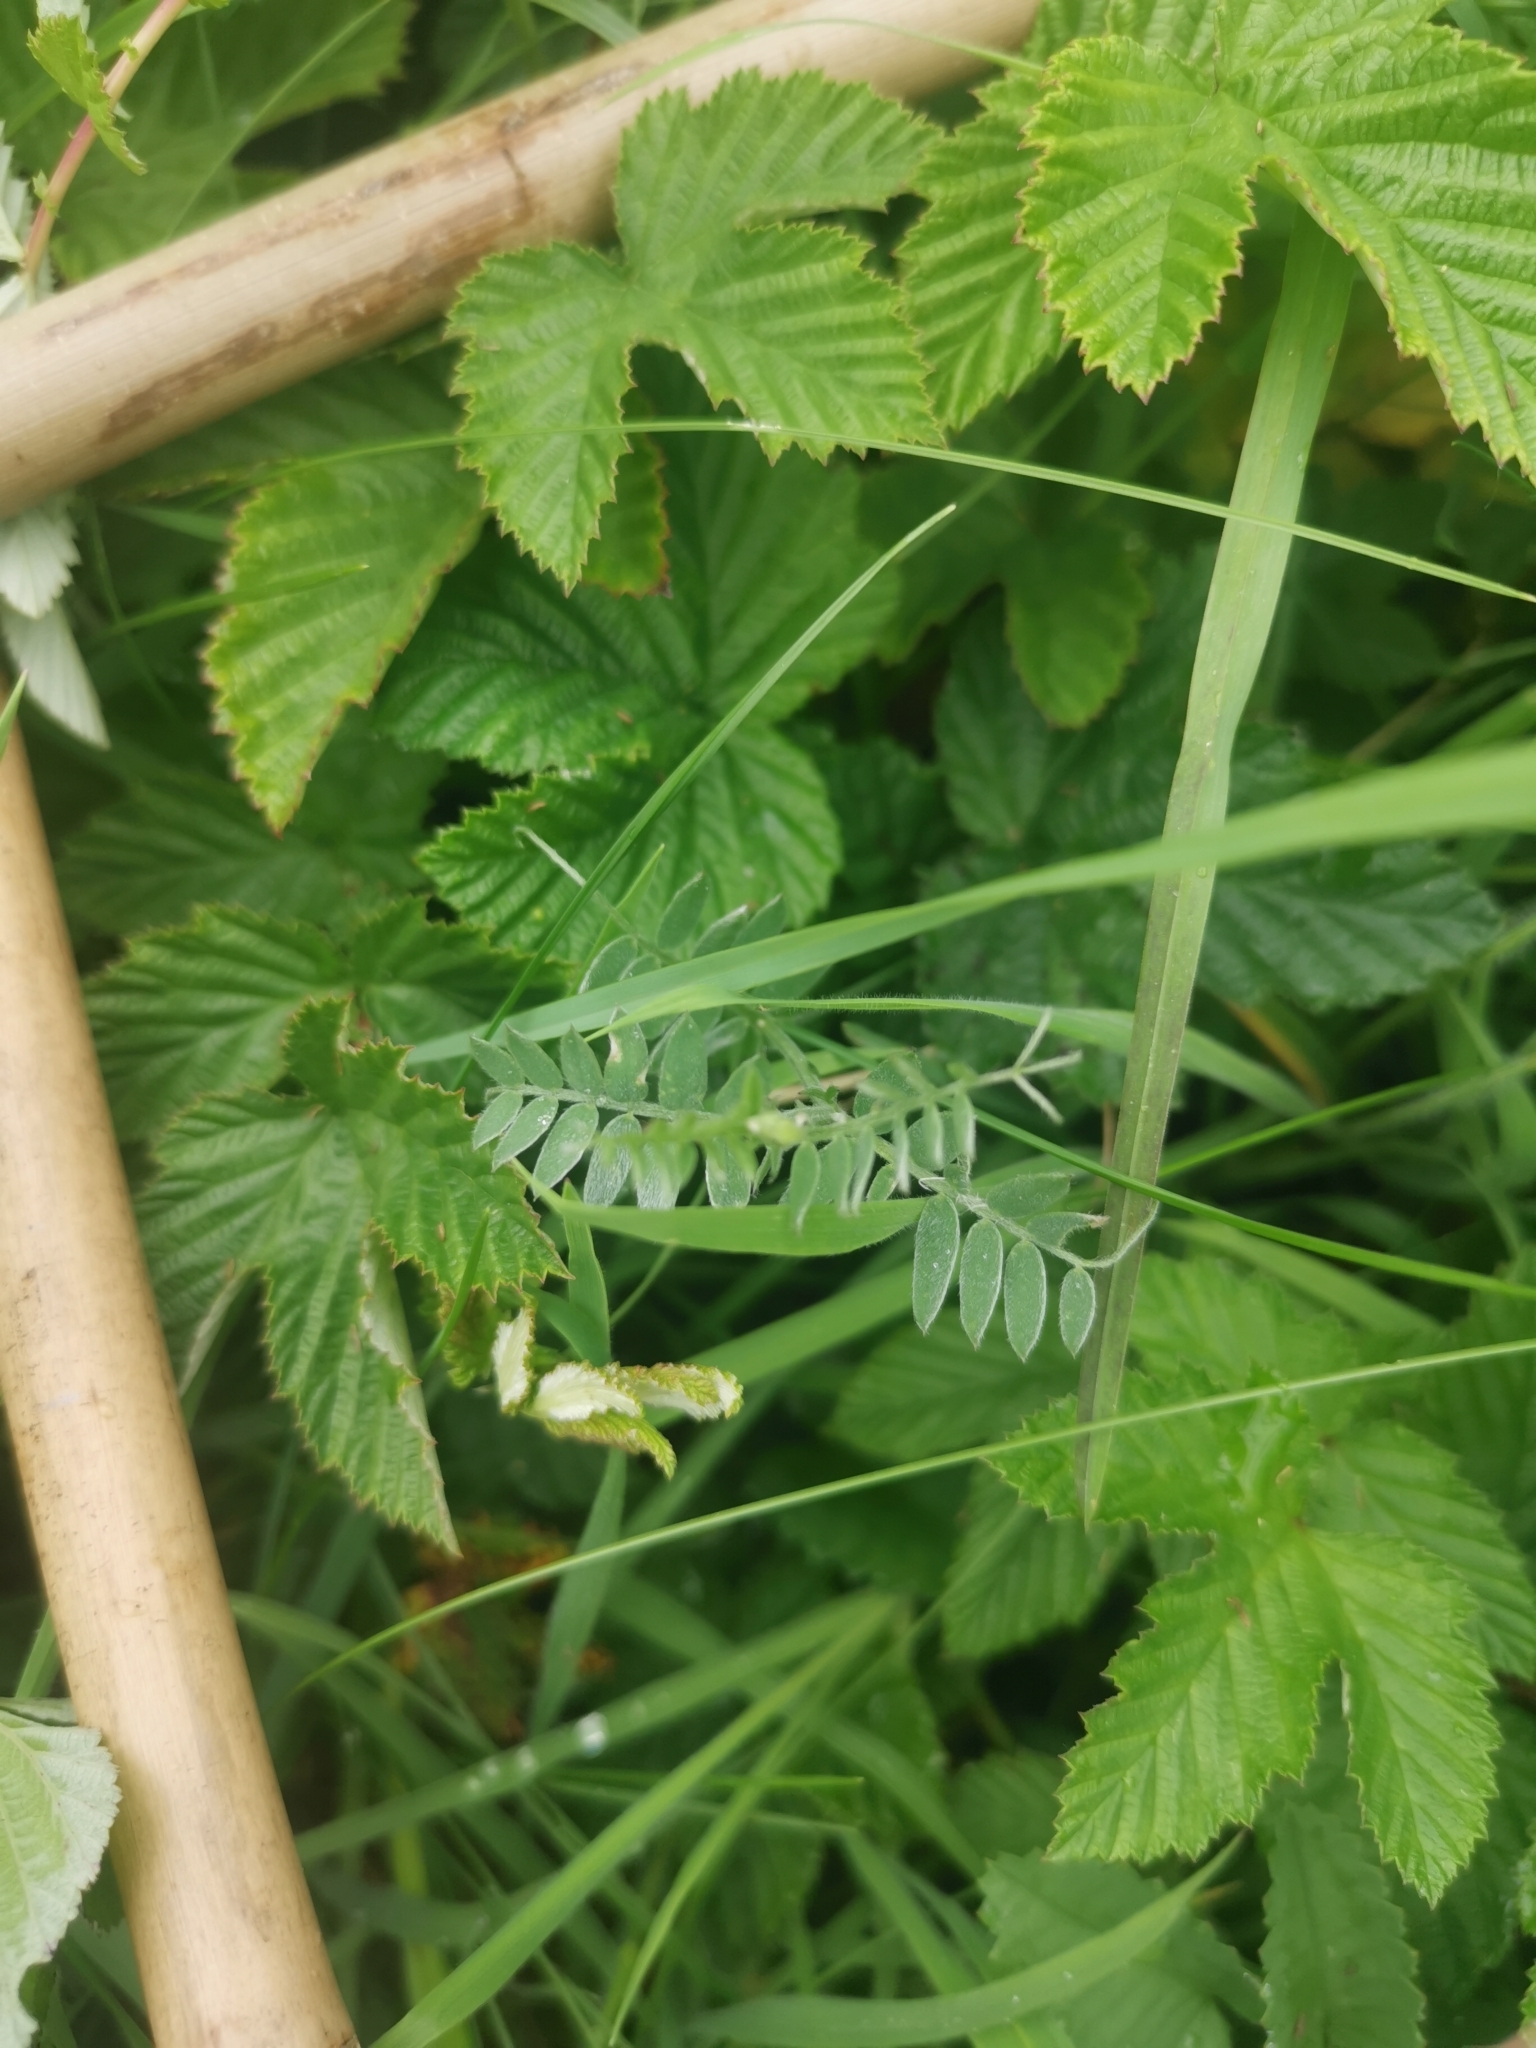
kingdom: Plantae
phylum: Tracheophyta
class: Magnoliopsida
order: Fabales
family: Fabaceae
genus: Vicia
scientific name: Vicia cracca
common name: Bird vetch
